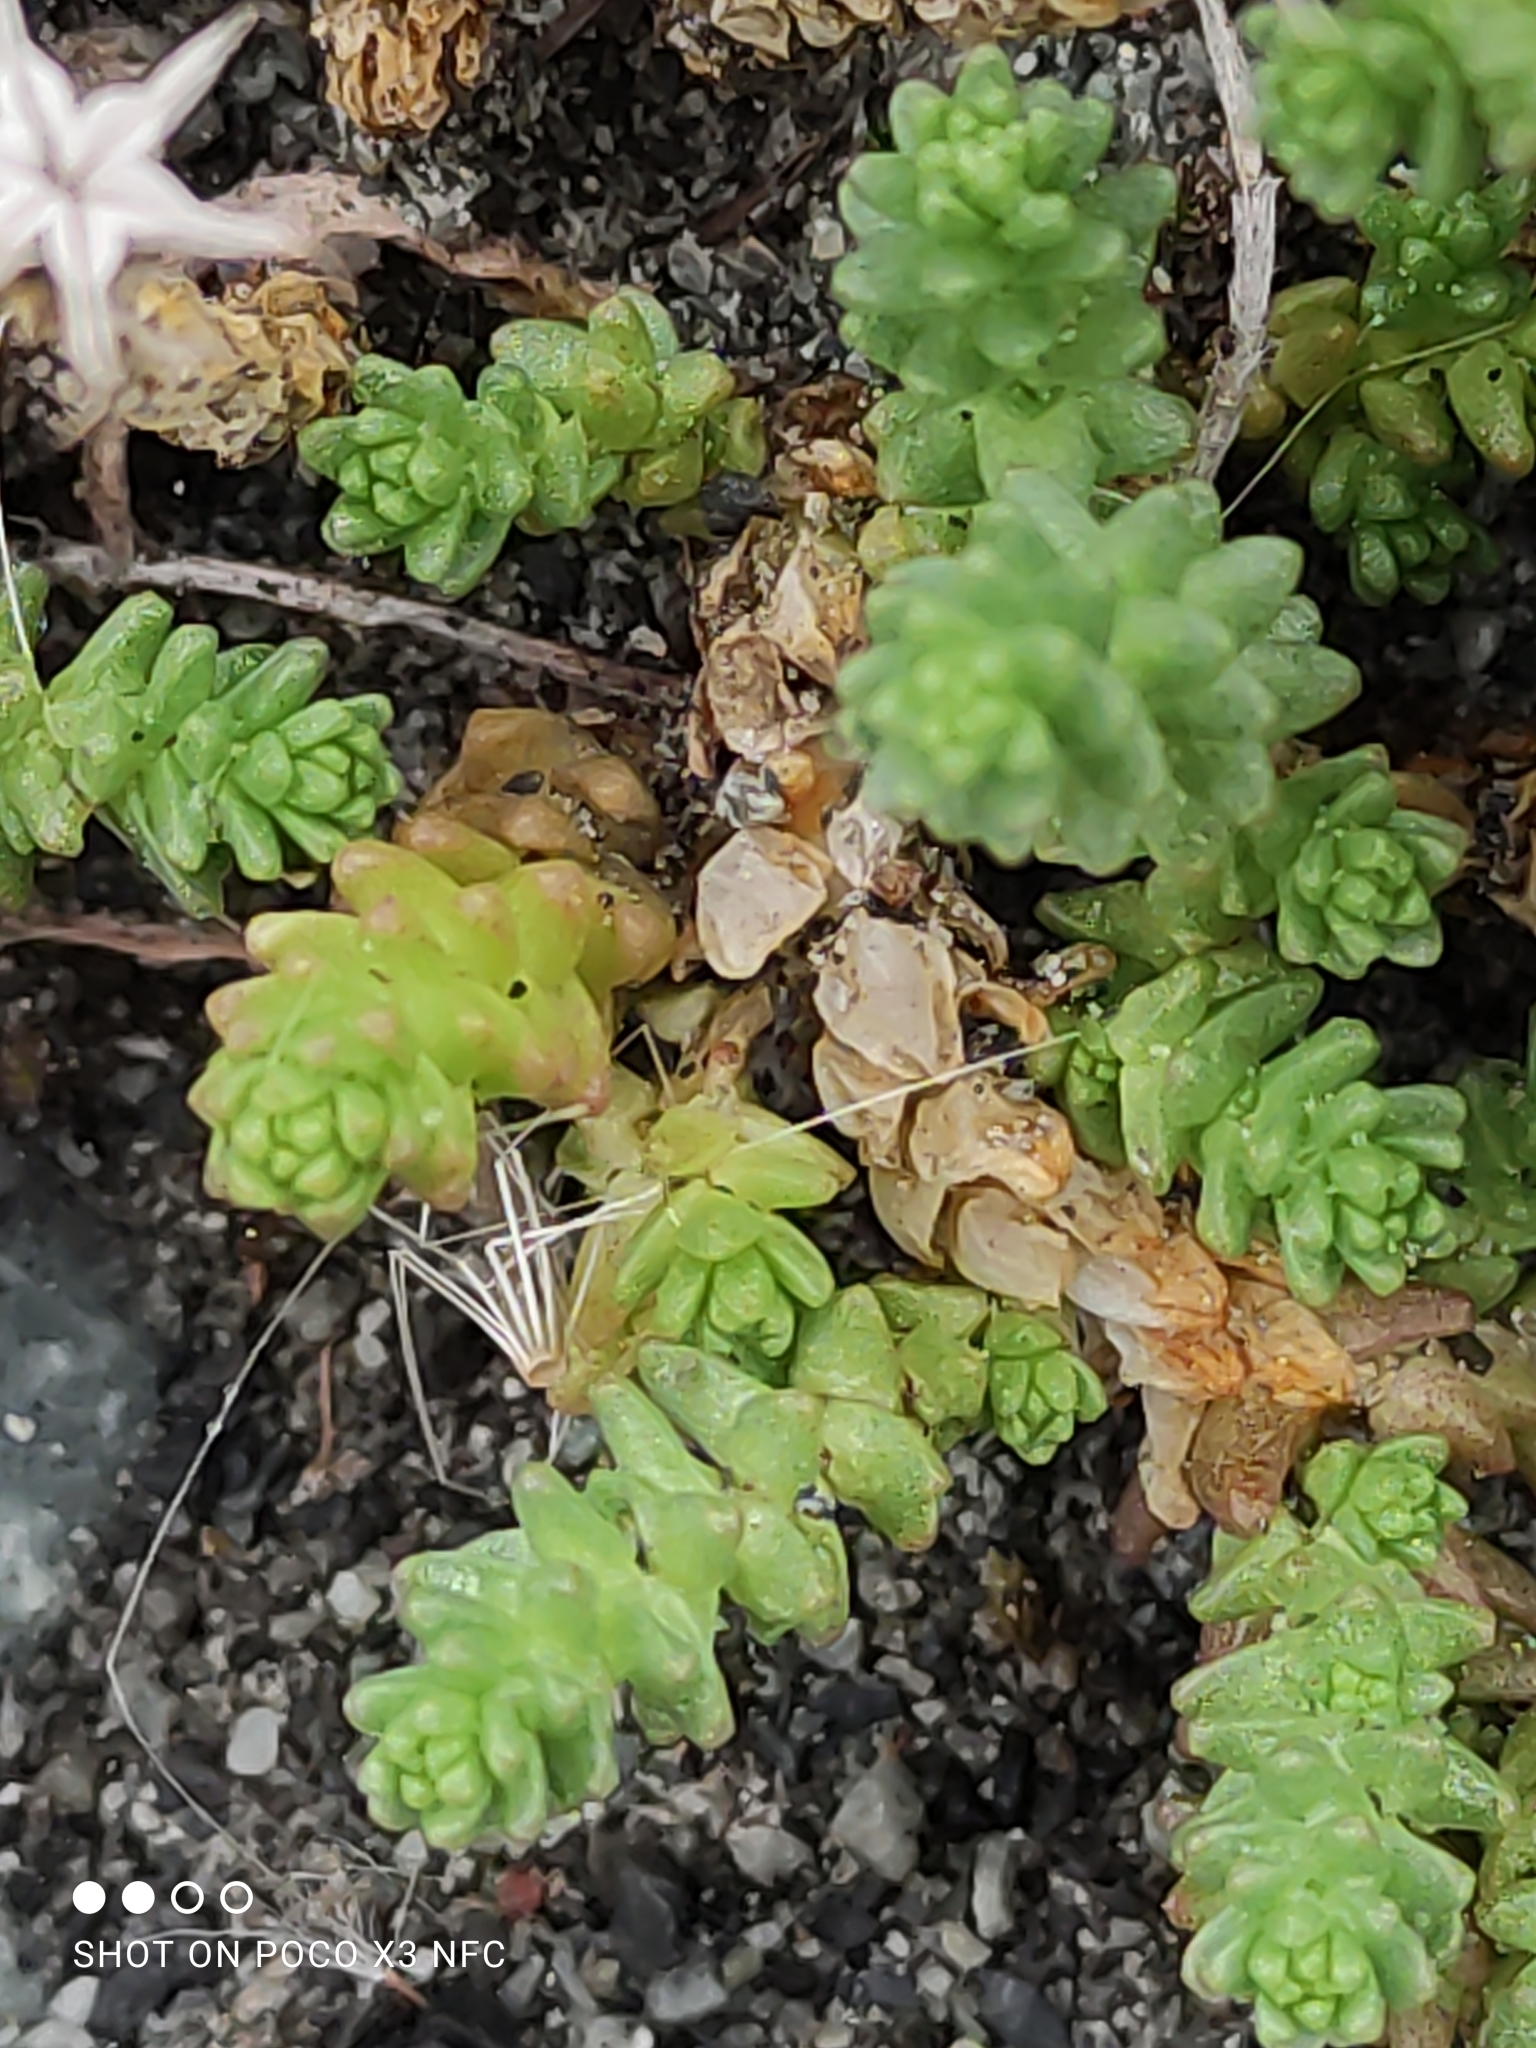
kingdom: Plantae
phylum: Tracheophyta
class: Magnoliopsida
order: Saxifragales
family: Crassulaceae
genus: Sedum
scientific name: Sedum acre
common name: Biting stonecrop
